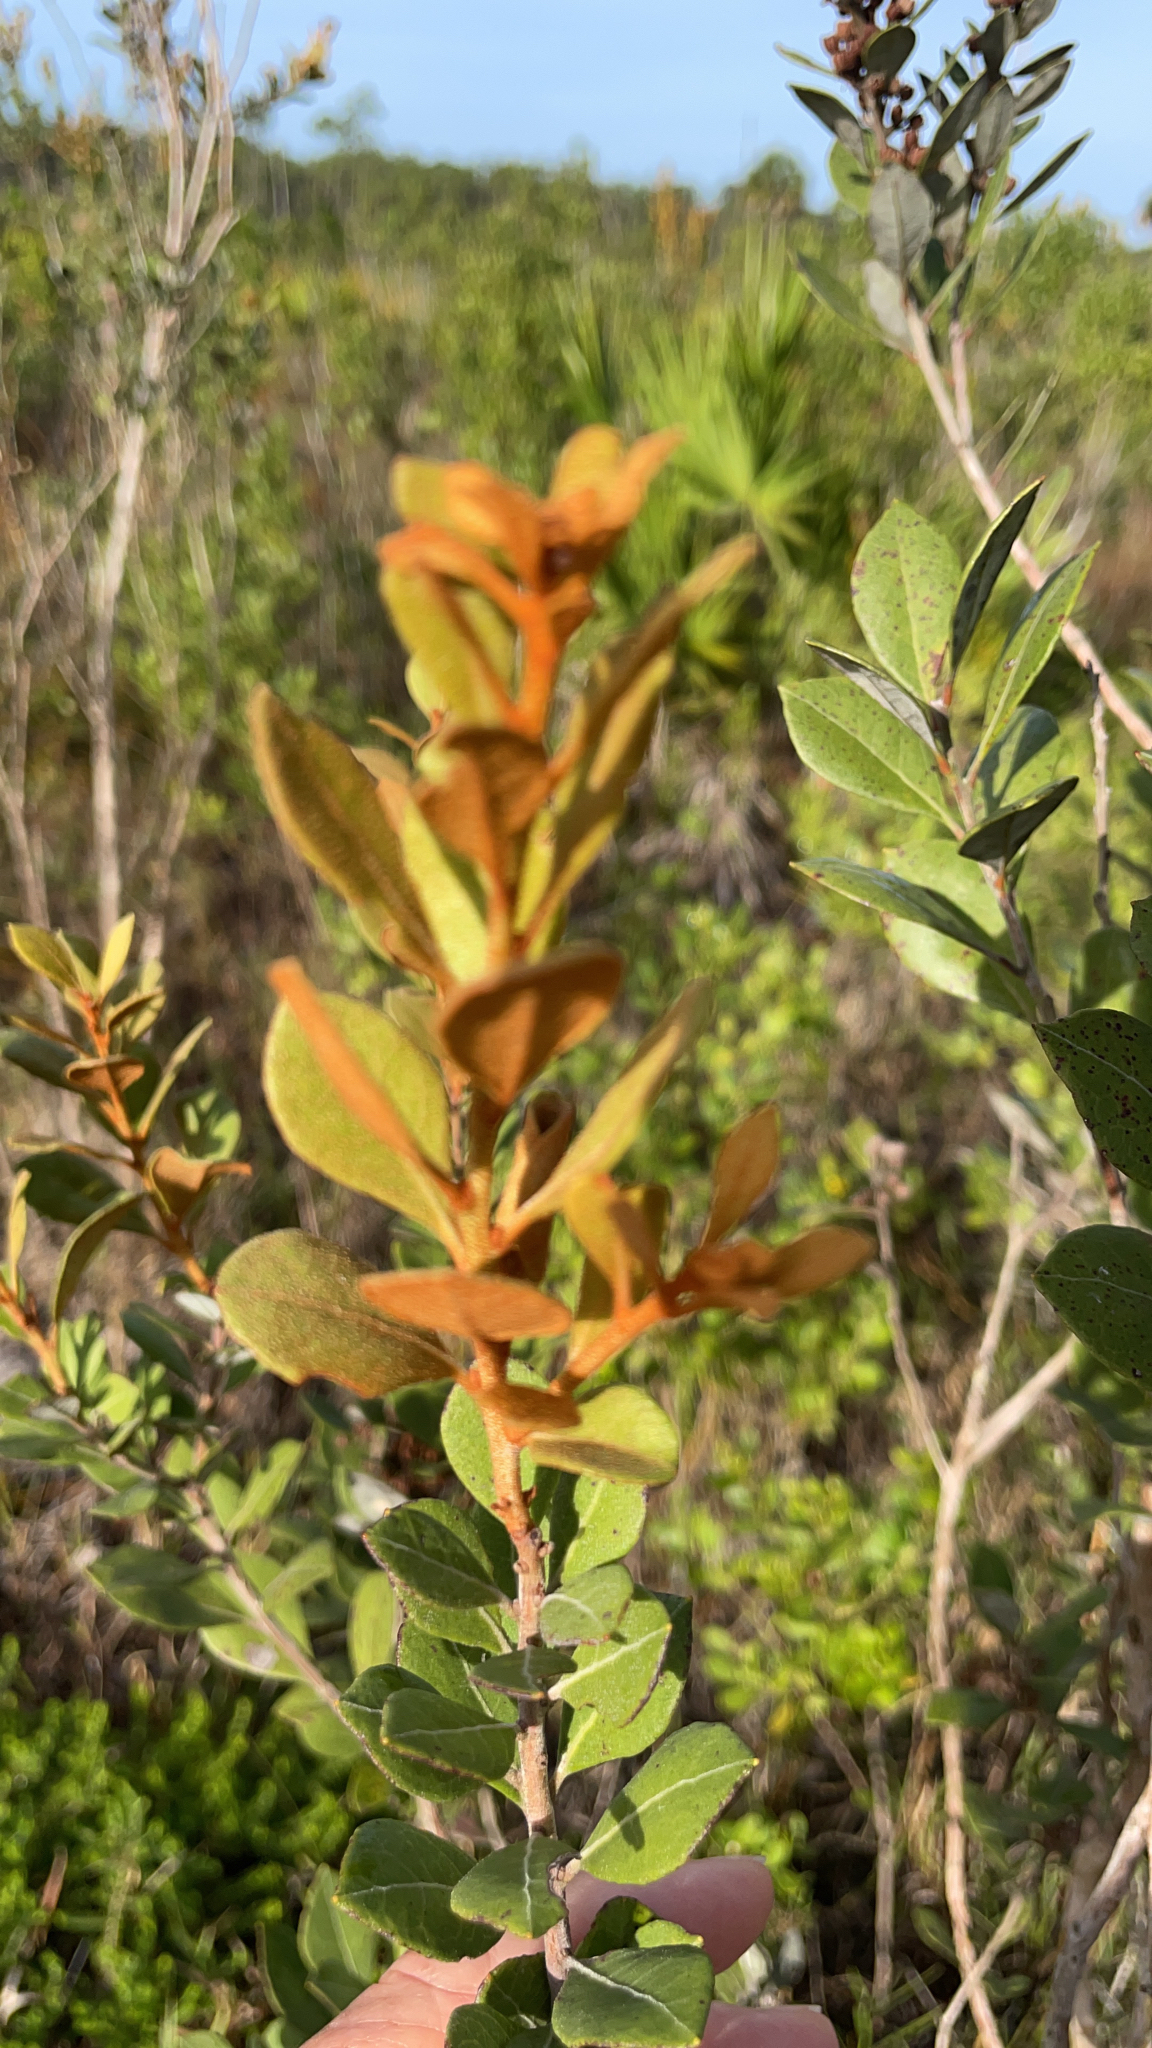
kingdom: Plantae
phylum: Tracheophyta
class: Magnoliopsida
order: Ericales
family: Ericaceae
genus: Lyonia
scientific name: Lyonia fruticosa
